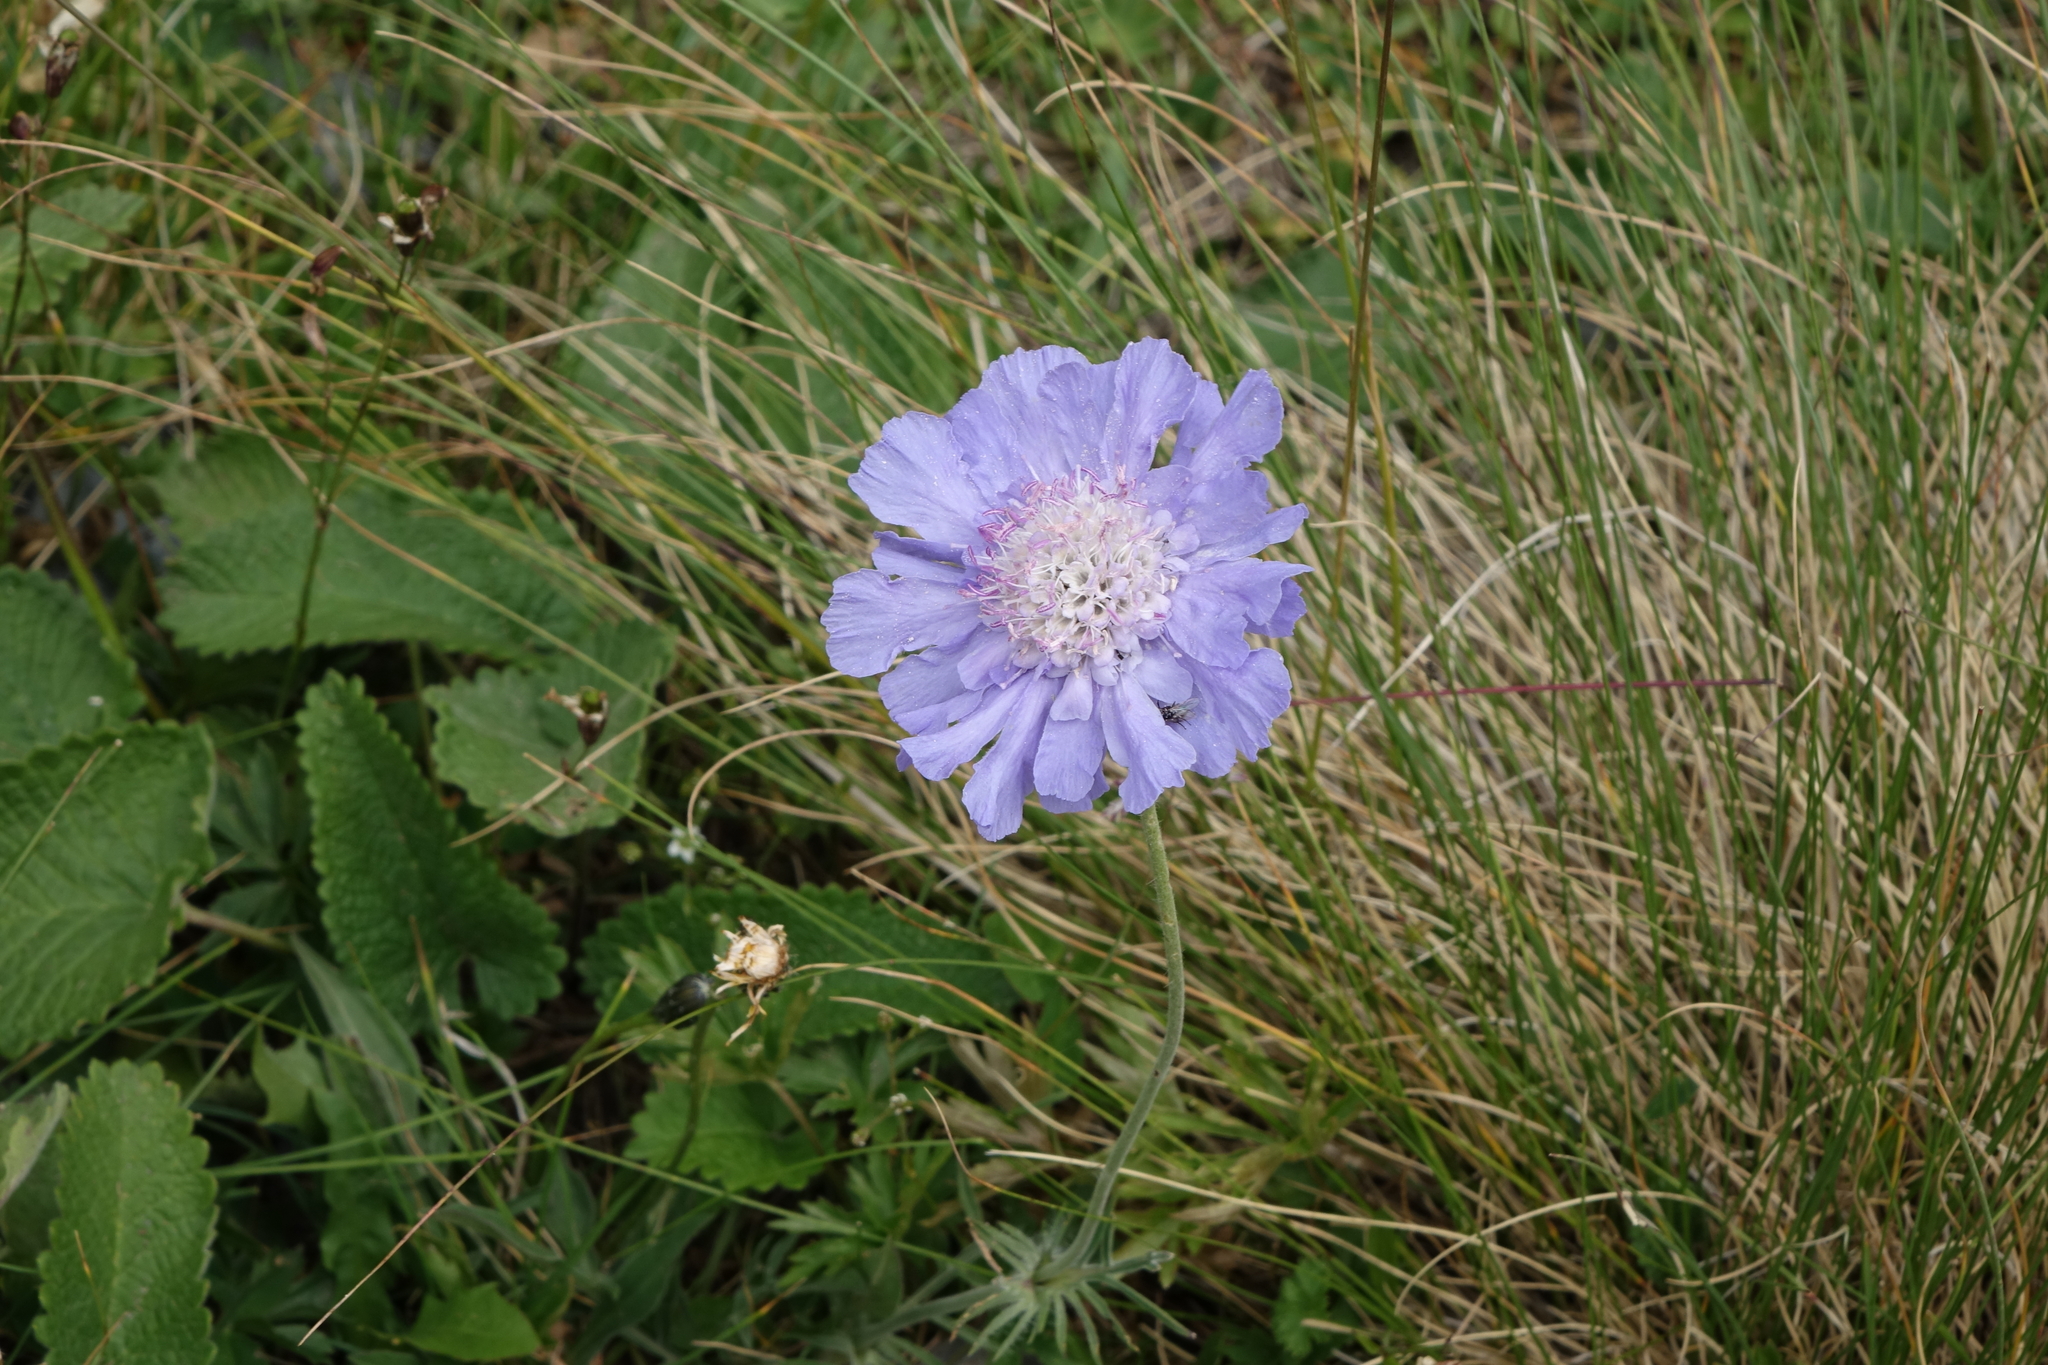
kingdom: Plantae
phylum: Tracheophyta
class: Magnoliopsida
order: Dipsacales
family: Caprifoliaceae
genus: Lomelosia
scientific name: Lomelosia caucasica
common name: Pincushion-flower
